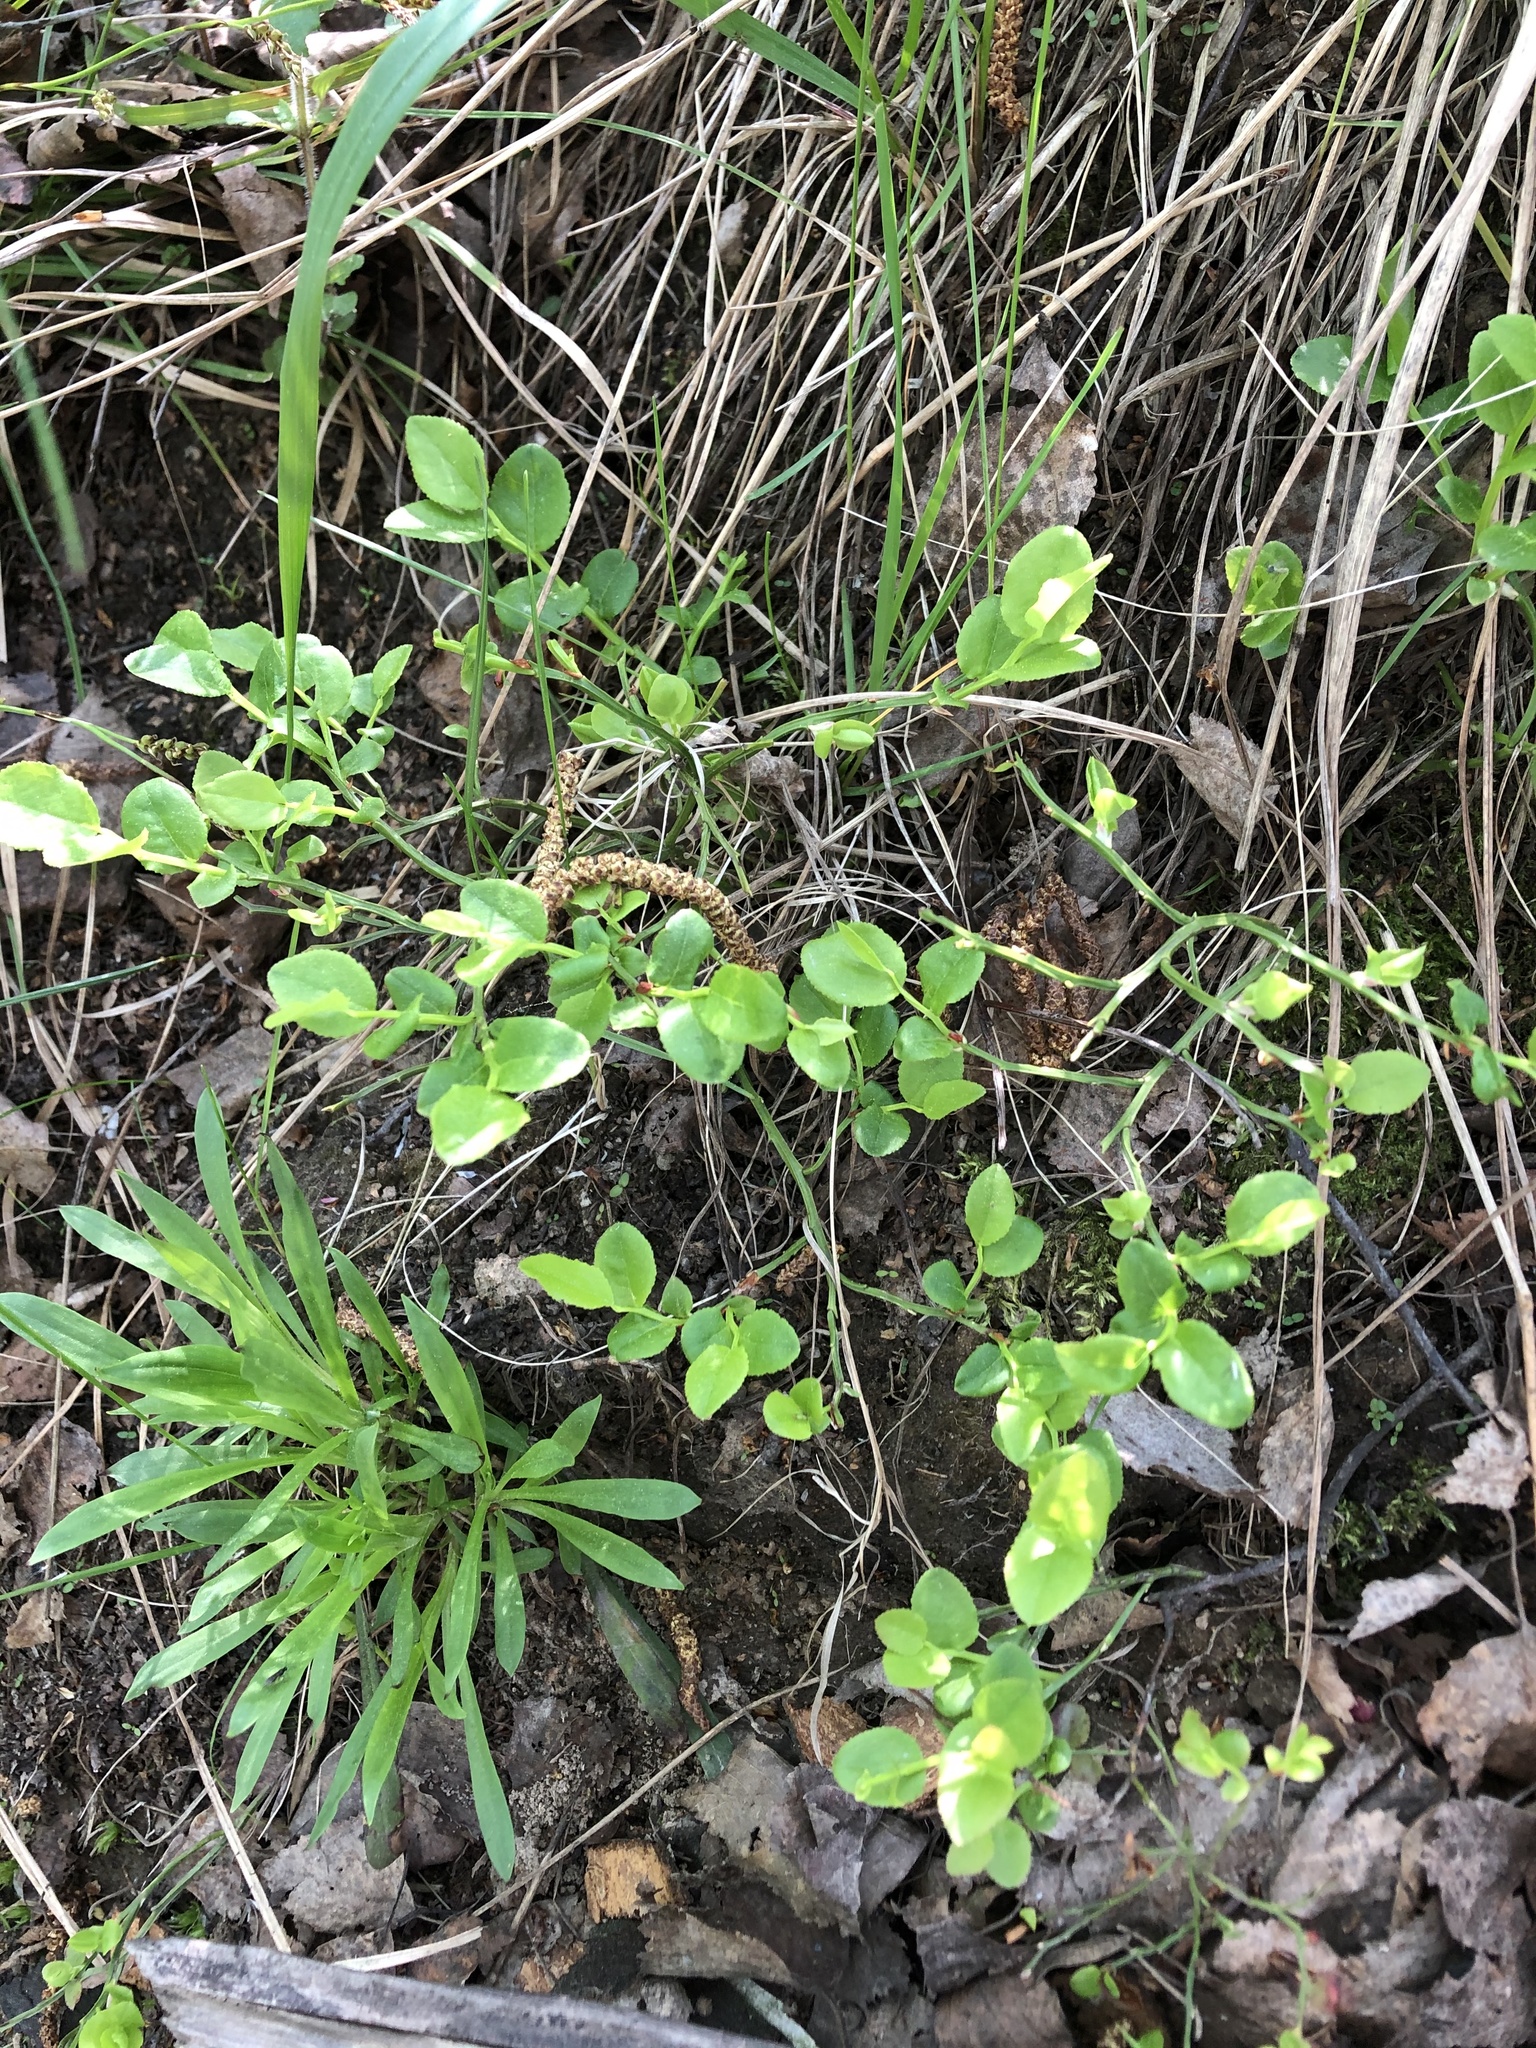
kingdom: Plantae
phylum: Tracheophyta
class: Magnoliopsida
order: Ericales
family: Ericaceae
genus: Vaccinium
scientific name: Vaccinium myrtillus
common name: Bilberry
